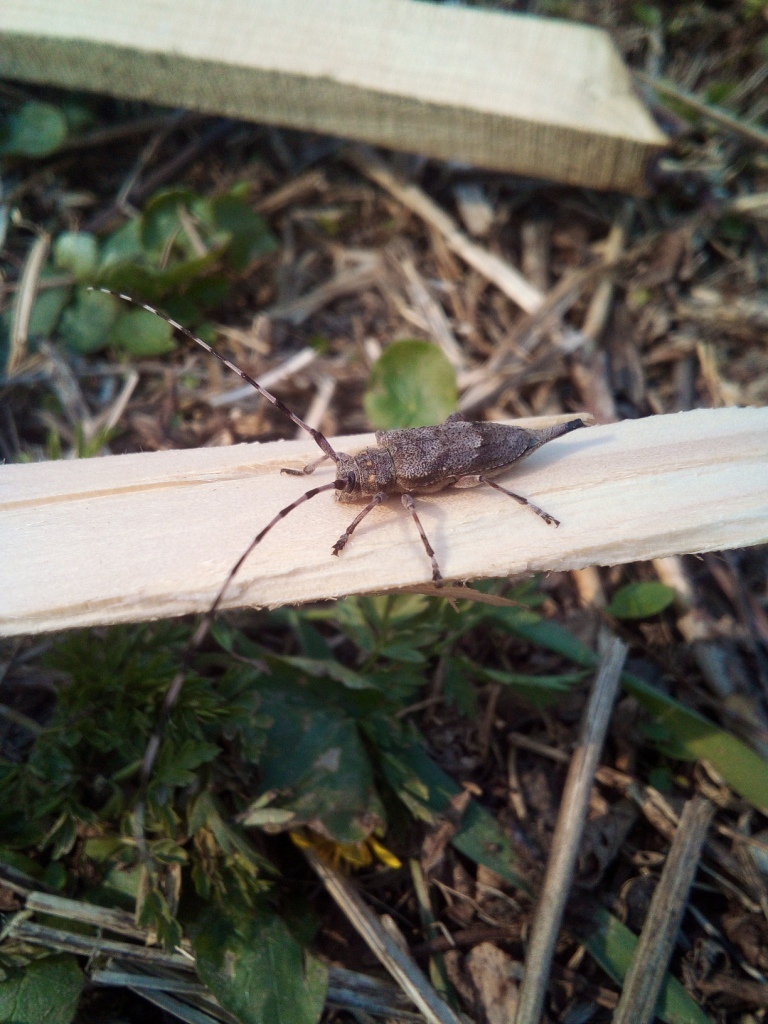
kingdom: Animalia
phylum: Arthropoda
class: Insecta
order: Coleoptera
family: Cerambycidae
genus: Acanthocinus
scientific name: Acanthocinus aedilis
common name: Timberman beetle
